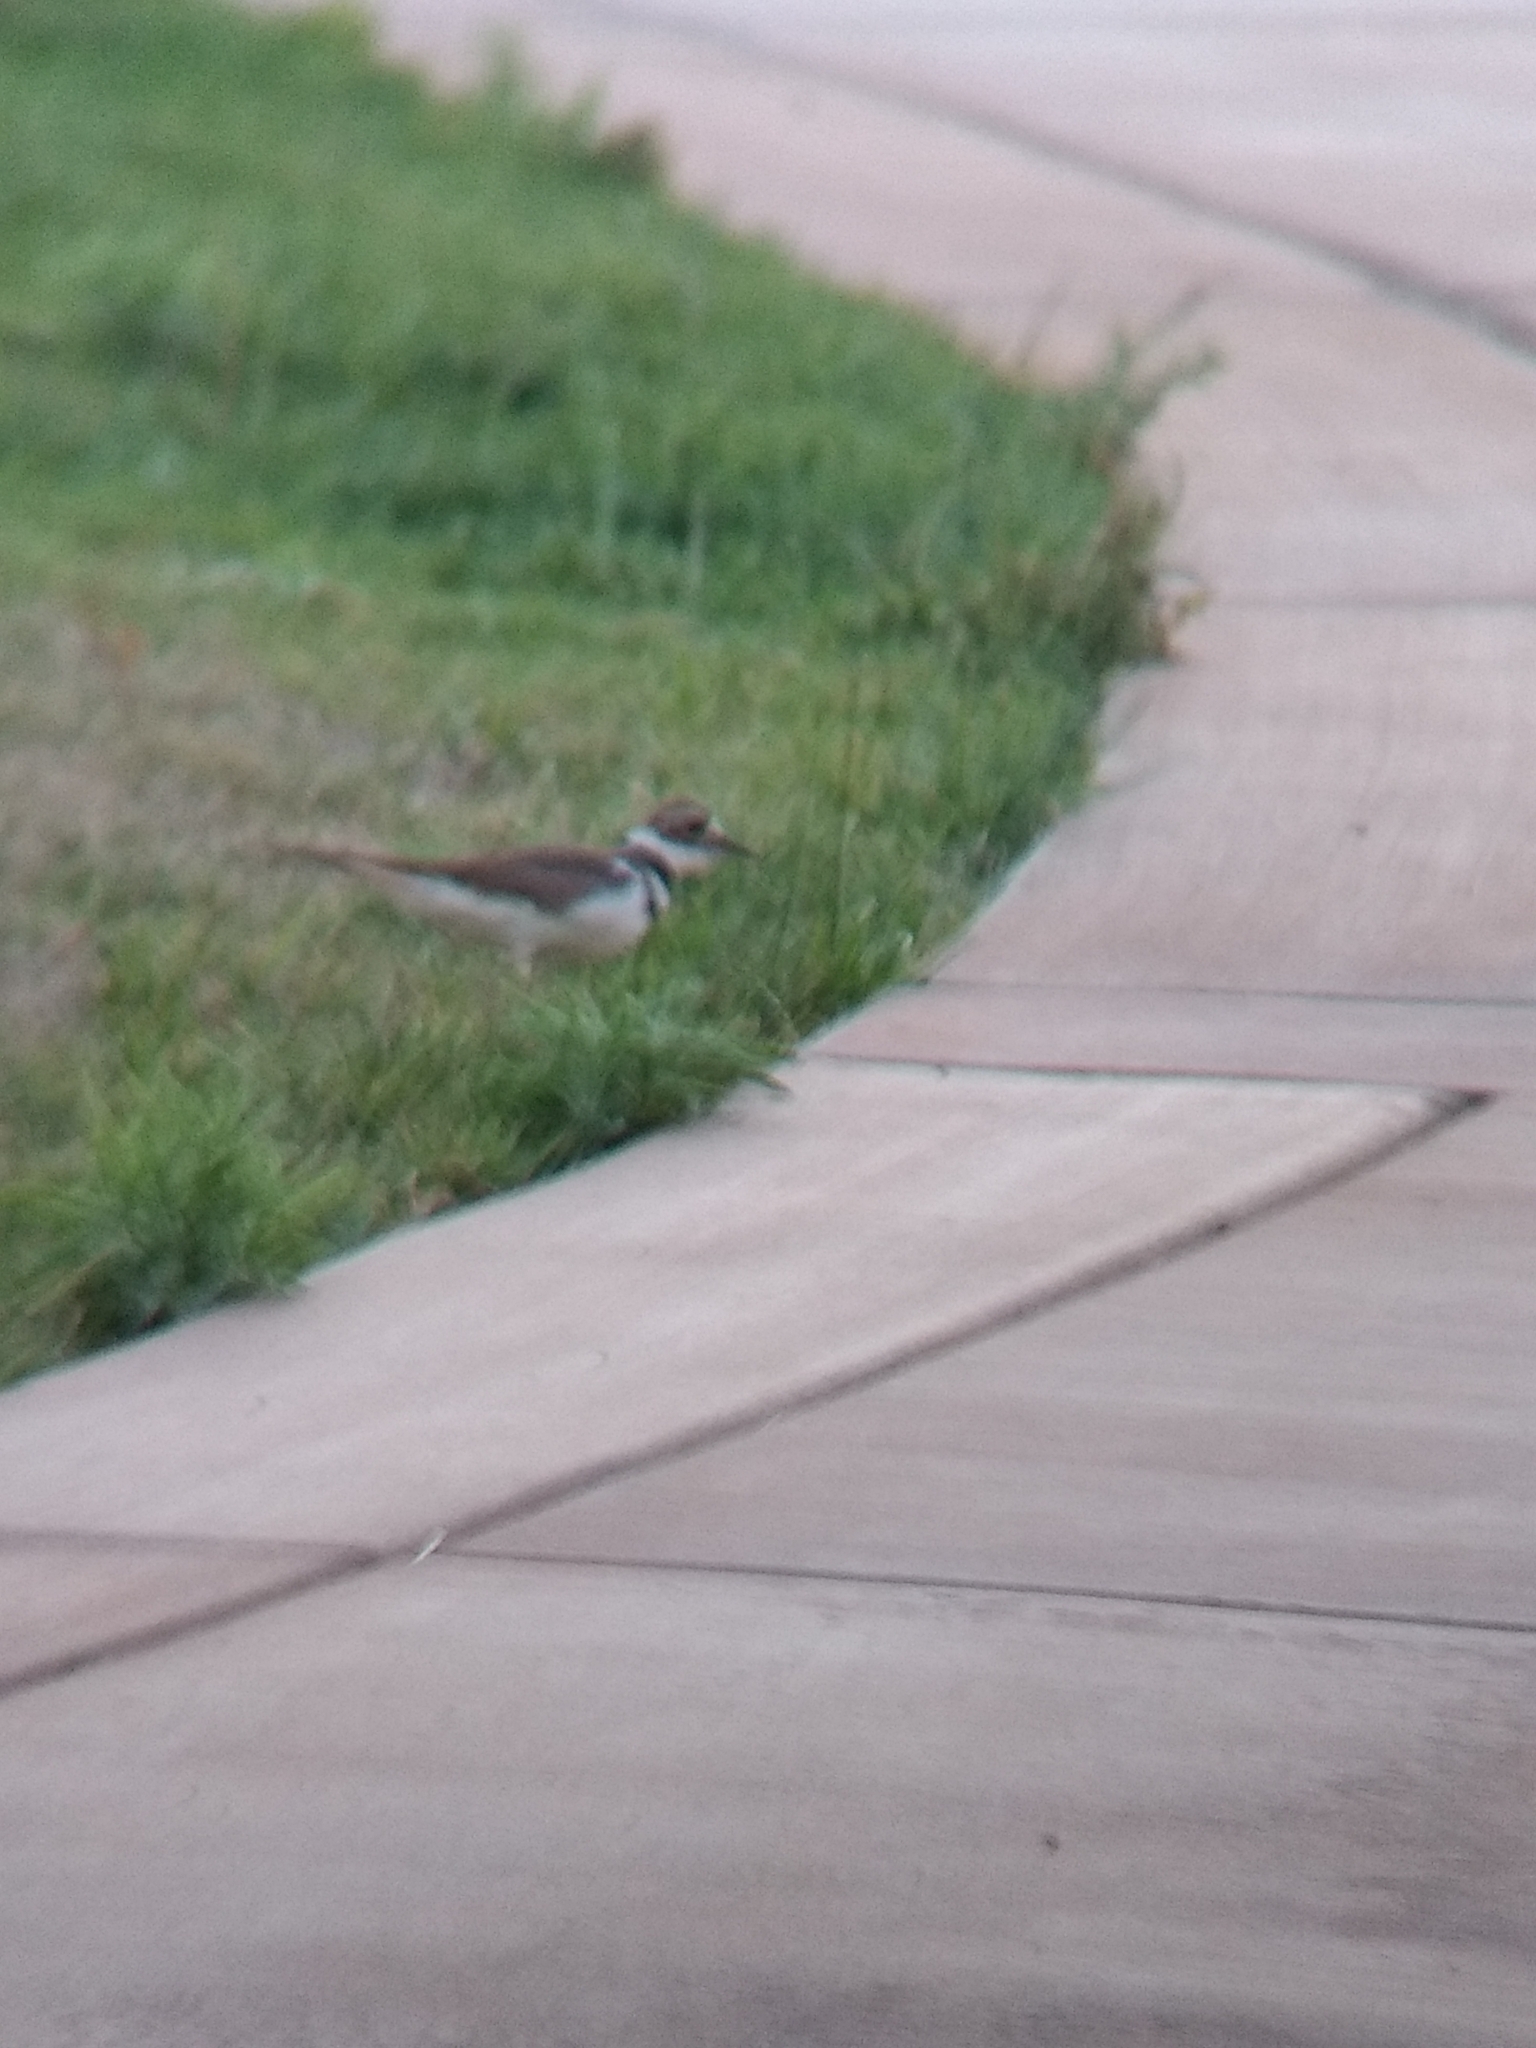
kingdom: Animalia
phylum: Chordata
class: Aves
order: Charadriiformes
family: Charadriidae
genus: Charadrius
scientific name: Charadrius vociferus
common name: Killdeer
